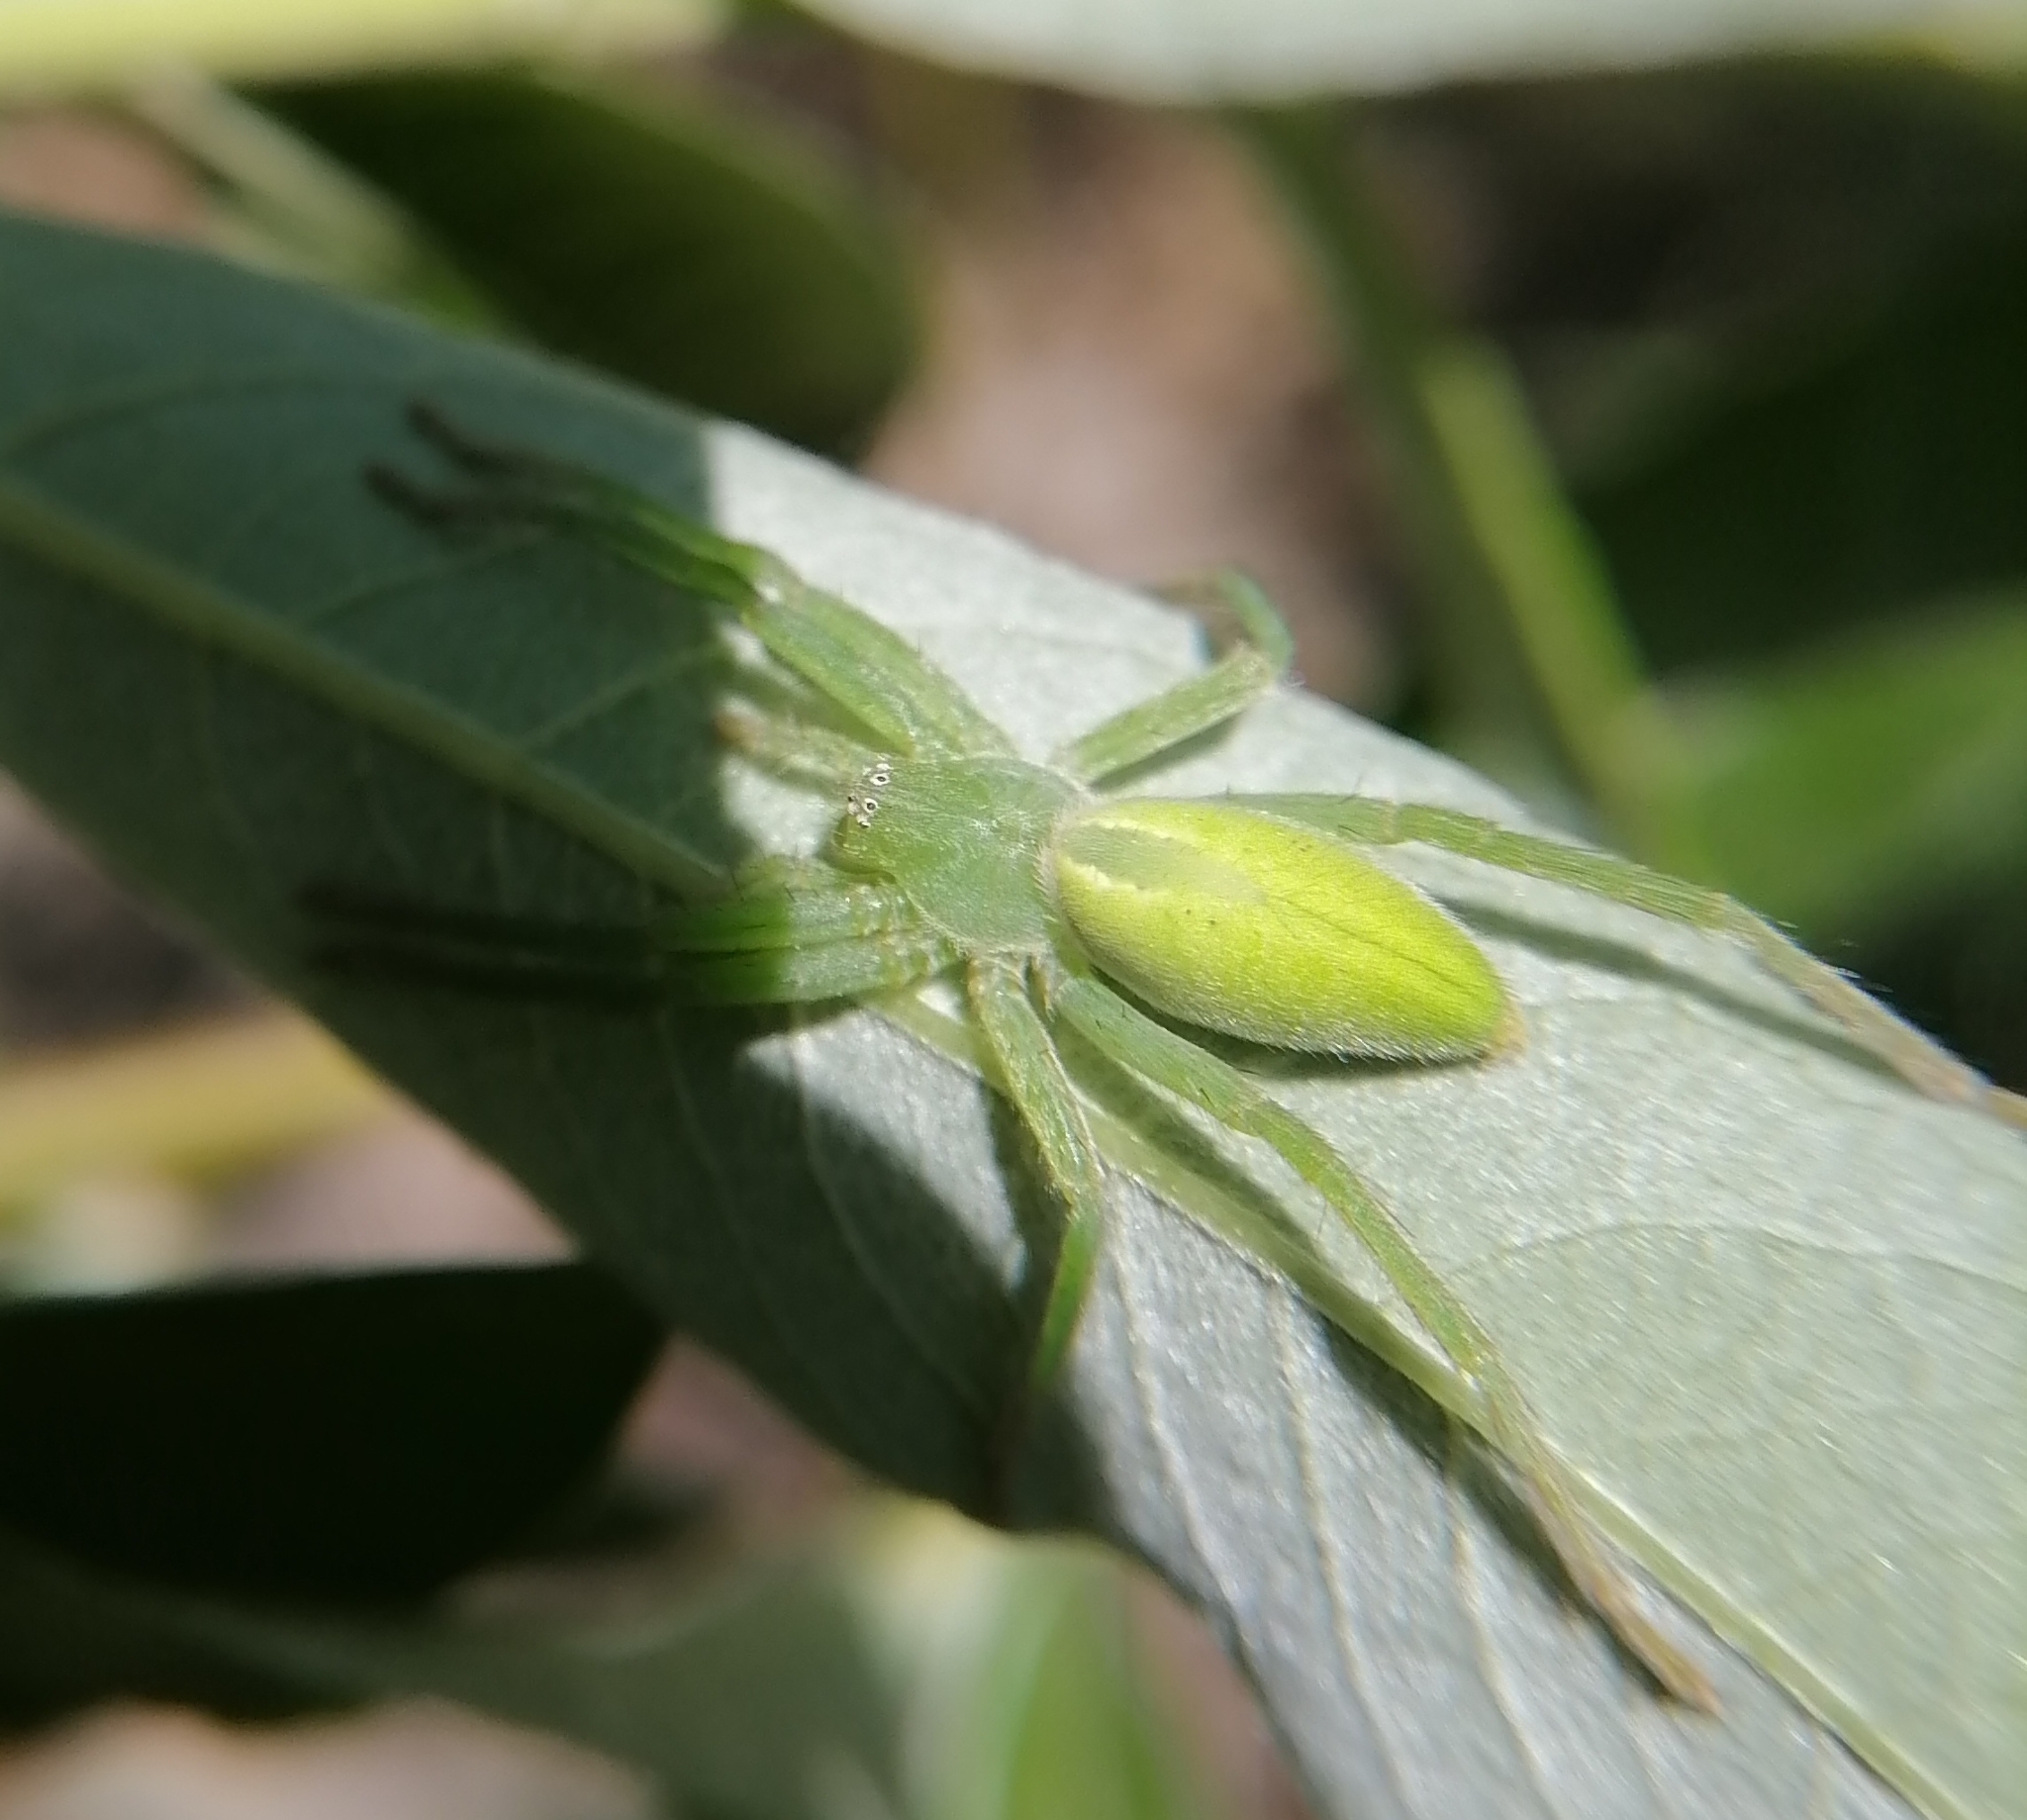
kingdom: Animalia
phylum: Arthropoda
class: Arachnida
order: Araneae
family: Sparassidae
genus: Micrommata
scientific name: Micrommata virescens
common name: Green spider
